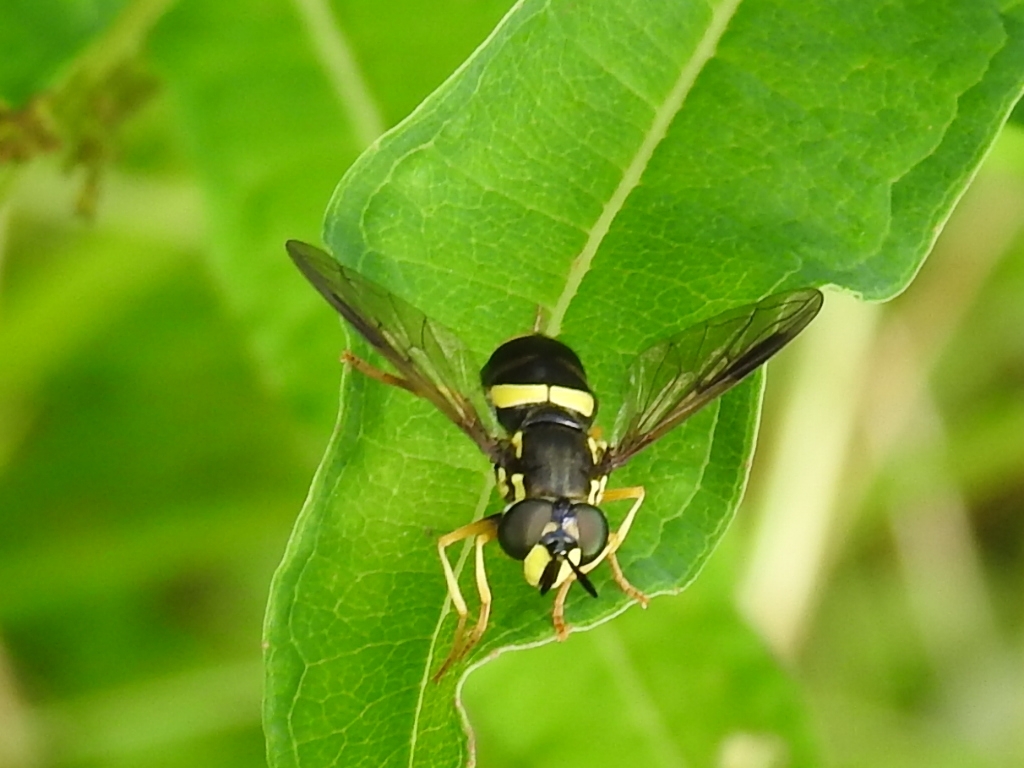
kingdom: Animalia
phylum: Arthropoda
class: Insecta
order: Diptera
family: Syrphidae
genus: Chrysotoxum
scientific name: Chrysotoxum bicincta
